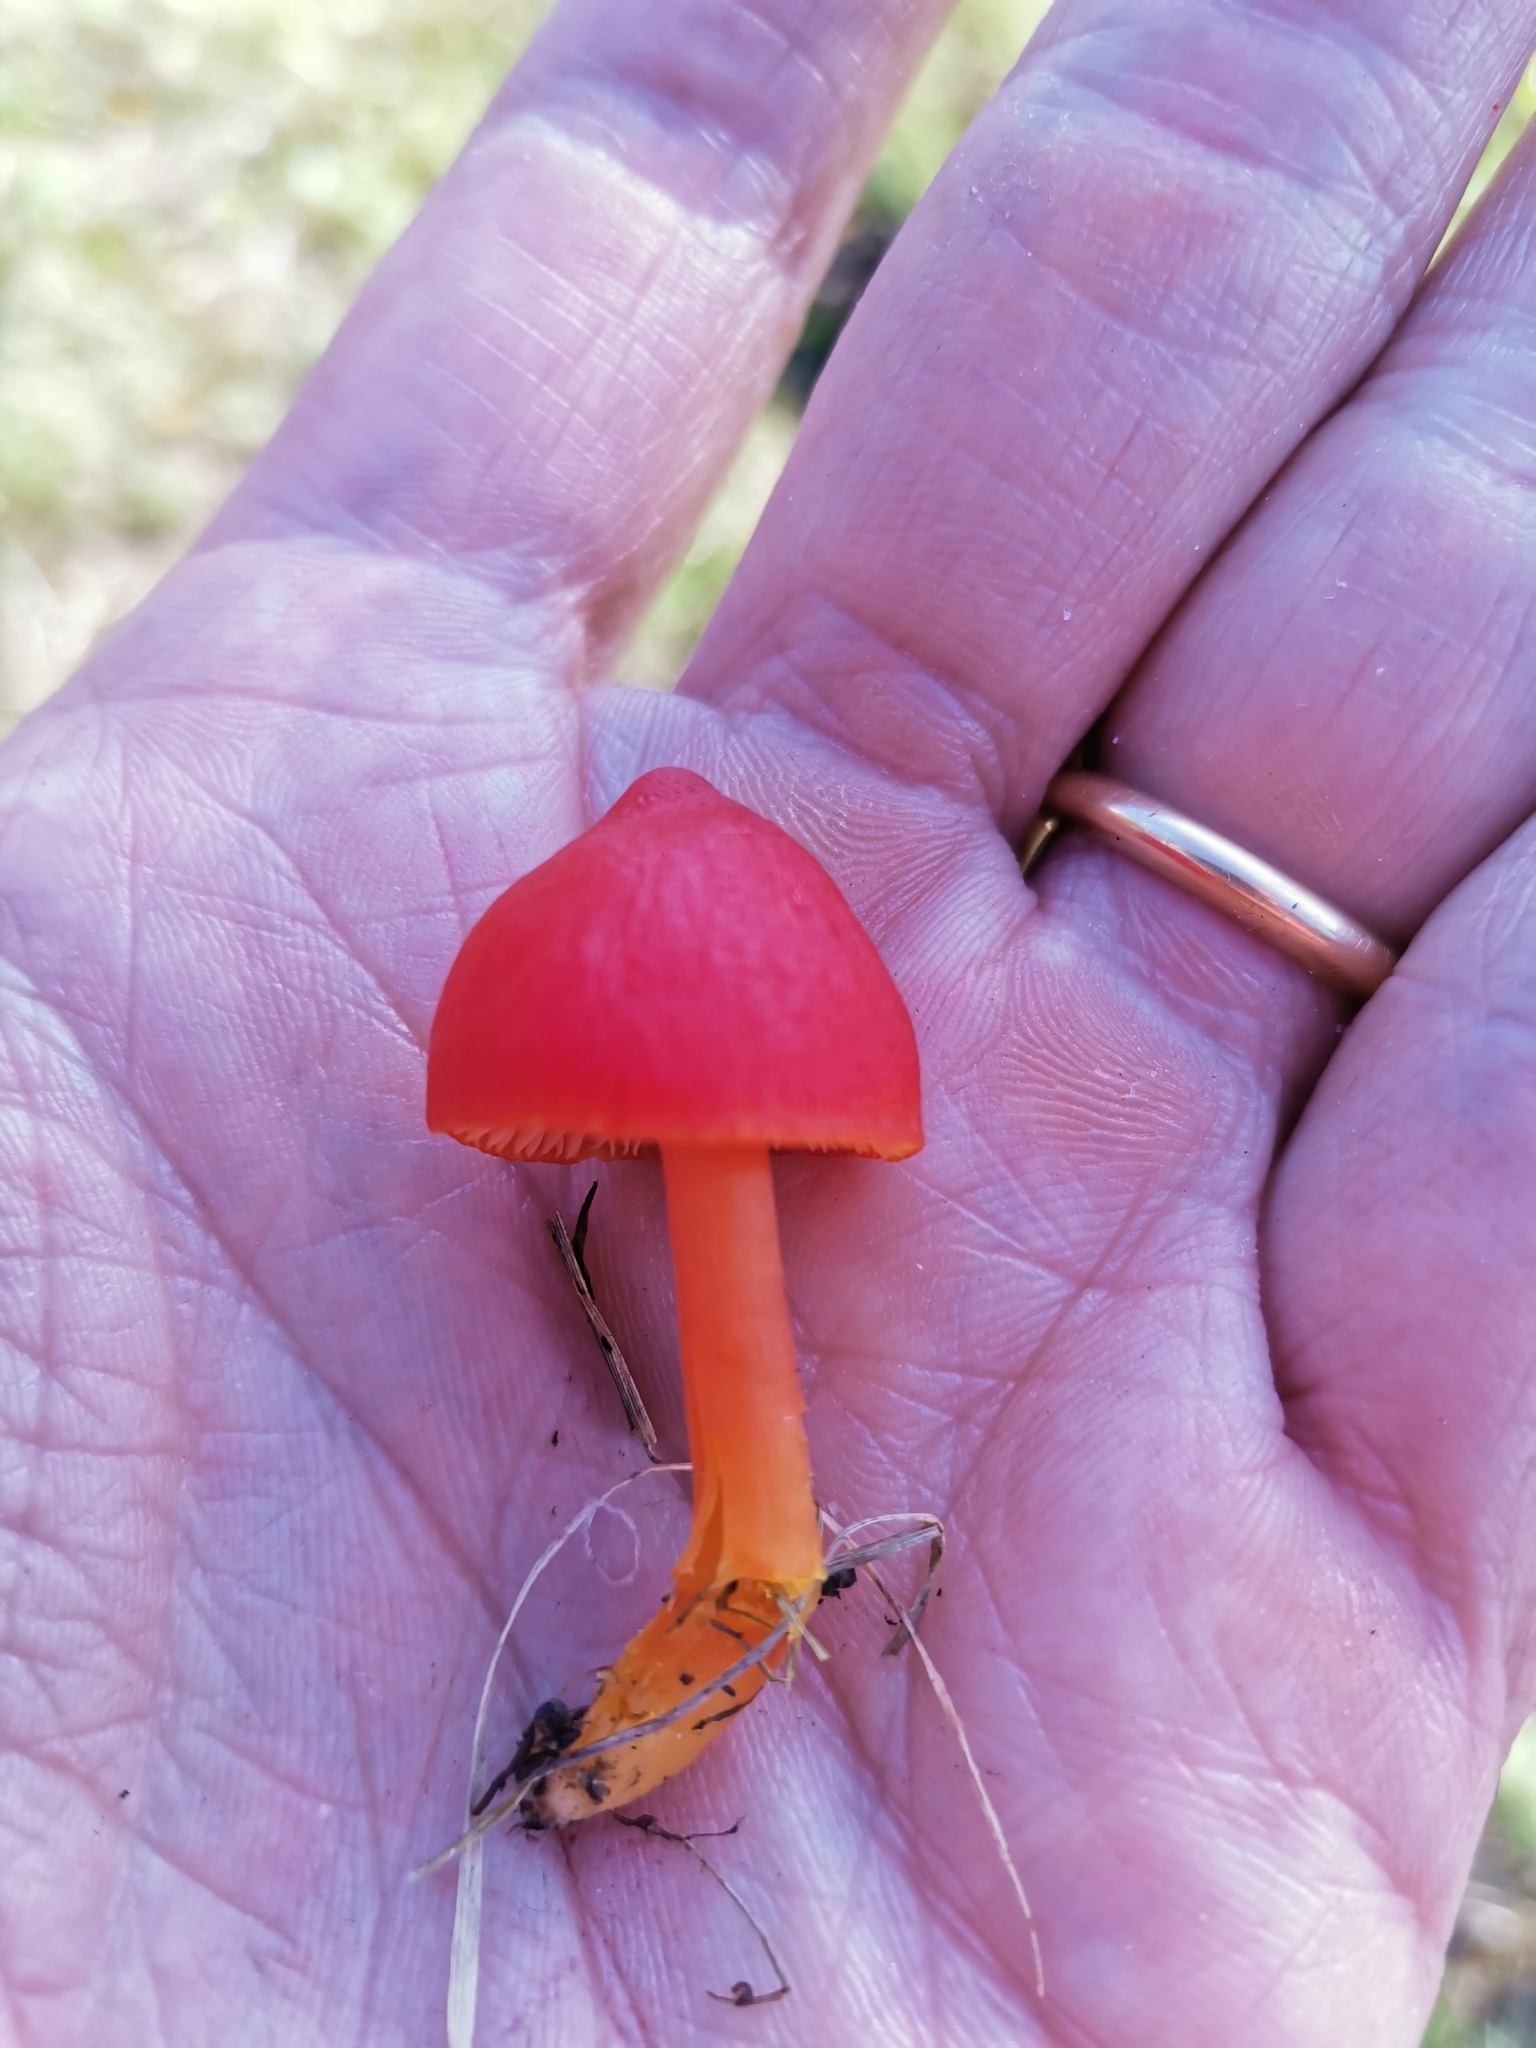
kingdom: Fungi
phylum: Basidiomycota
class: Agaricomycetes
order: Agaricales
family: Hygrophoraceae
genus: Hygrocybe
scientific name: Hygrocybe coccinea
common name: Scarlet hood
